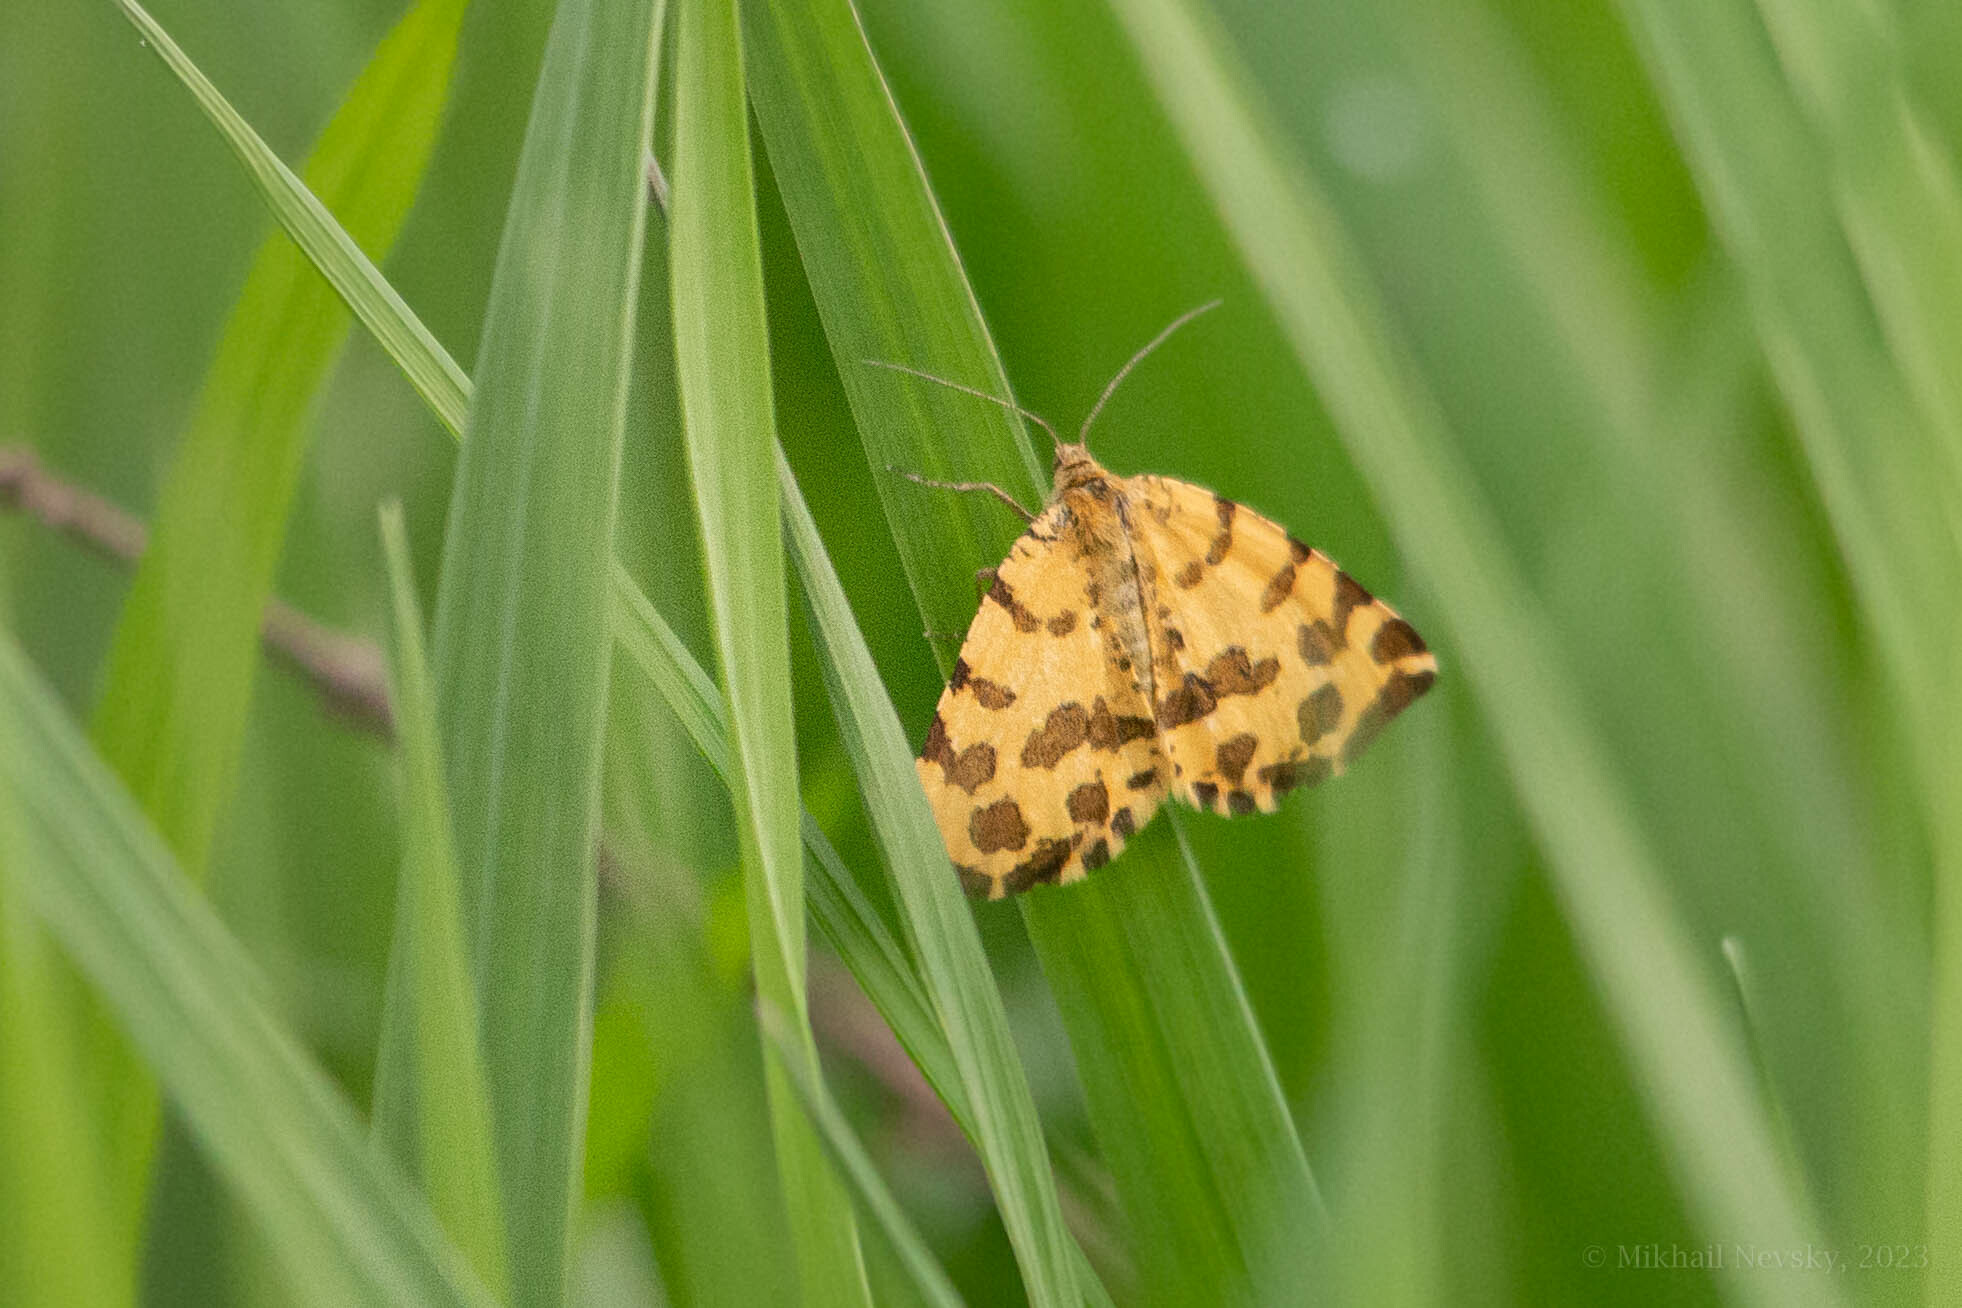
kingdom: Animalia
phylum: Arthropoda
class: Insecta
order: Lepidoptera
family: Geometridae
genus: Pseudopanthera
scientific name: Pseudopanthera macularia
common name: Speckled yellow
